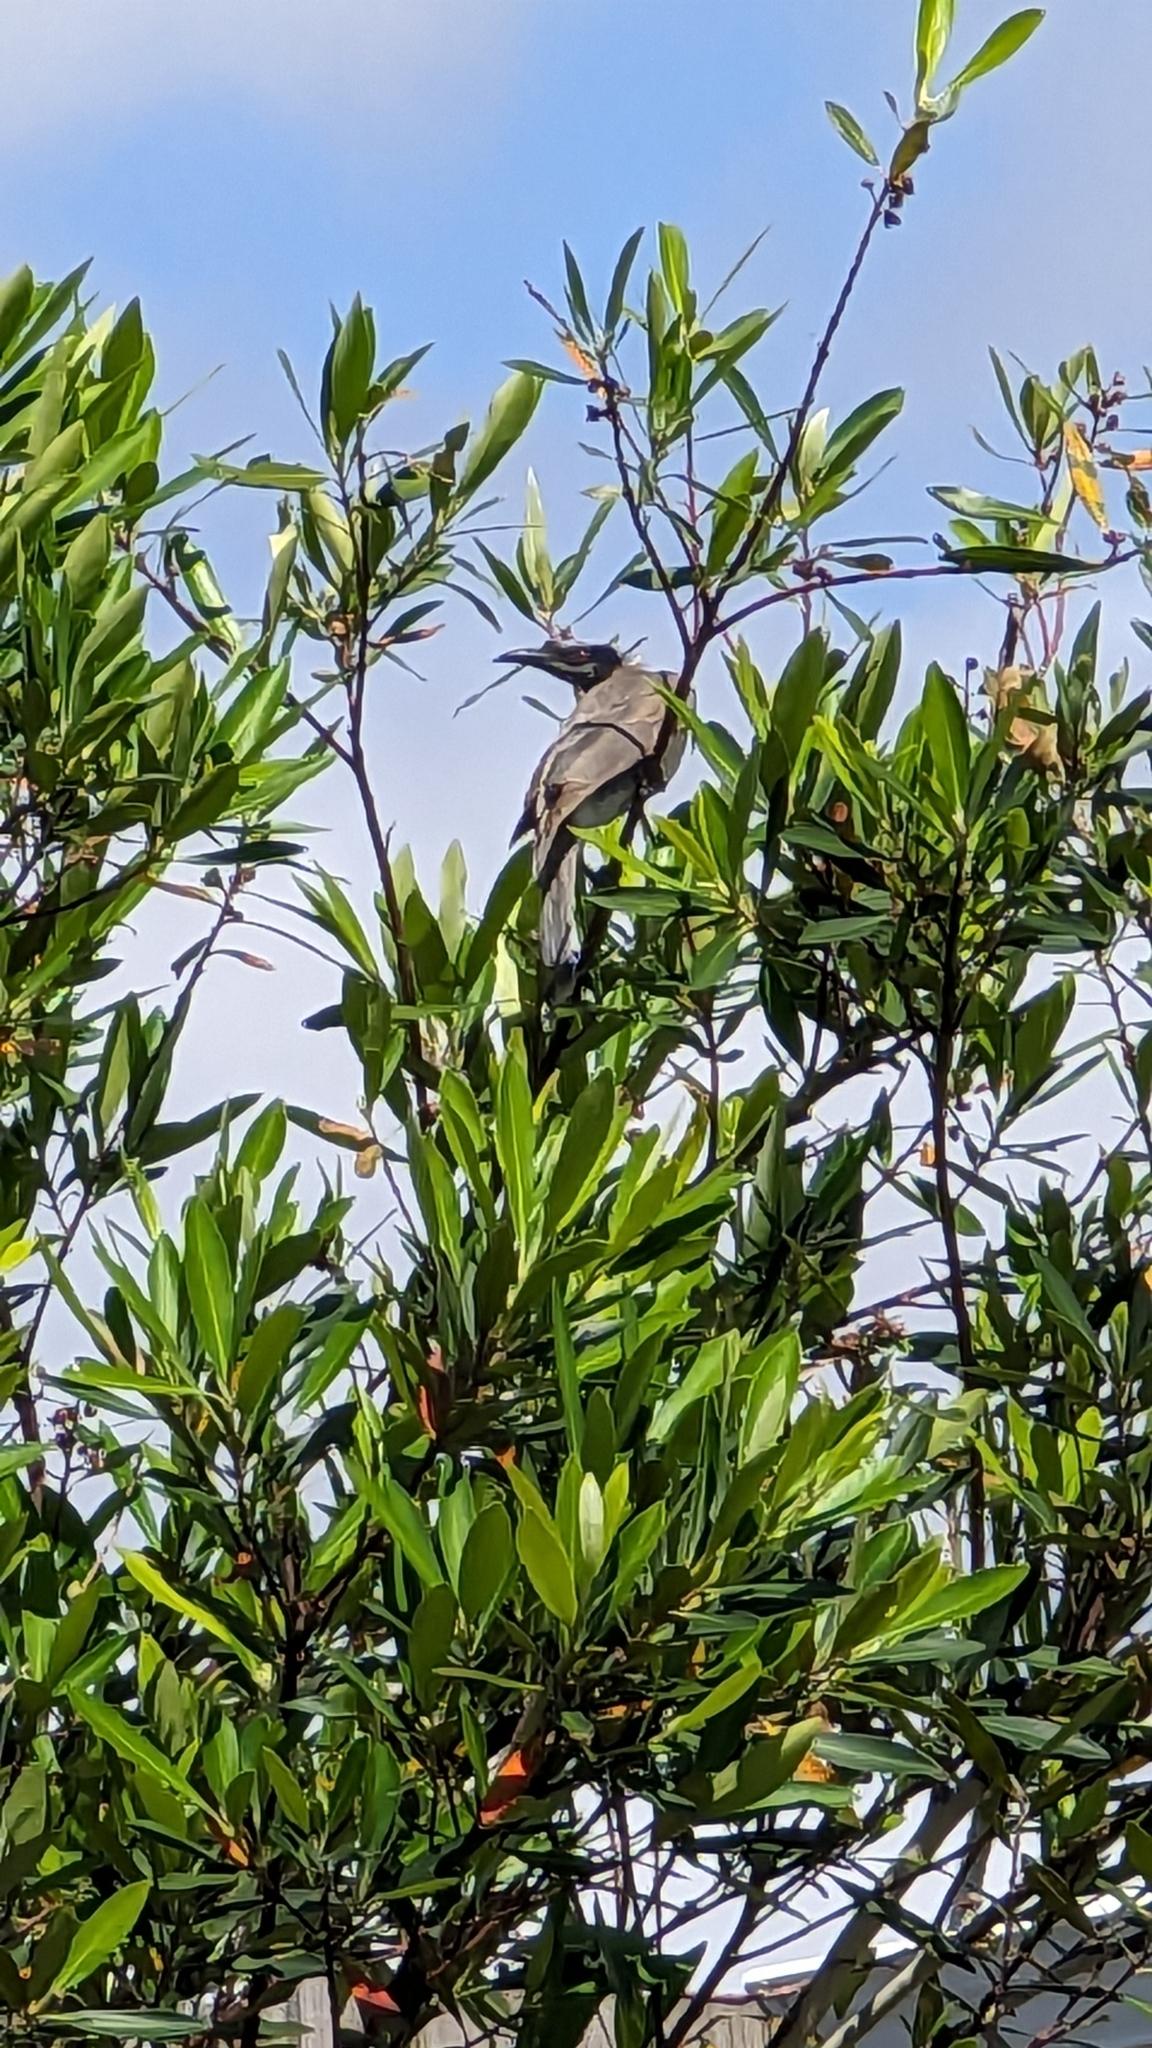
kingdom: Animalia
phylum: Chordata
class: Aves
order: Passeriformes
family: Meliphagidae
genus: Philemon
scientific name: Philemon corniculatus
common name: Noisy friarbird
